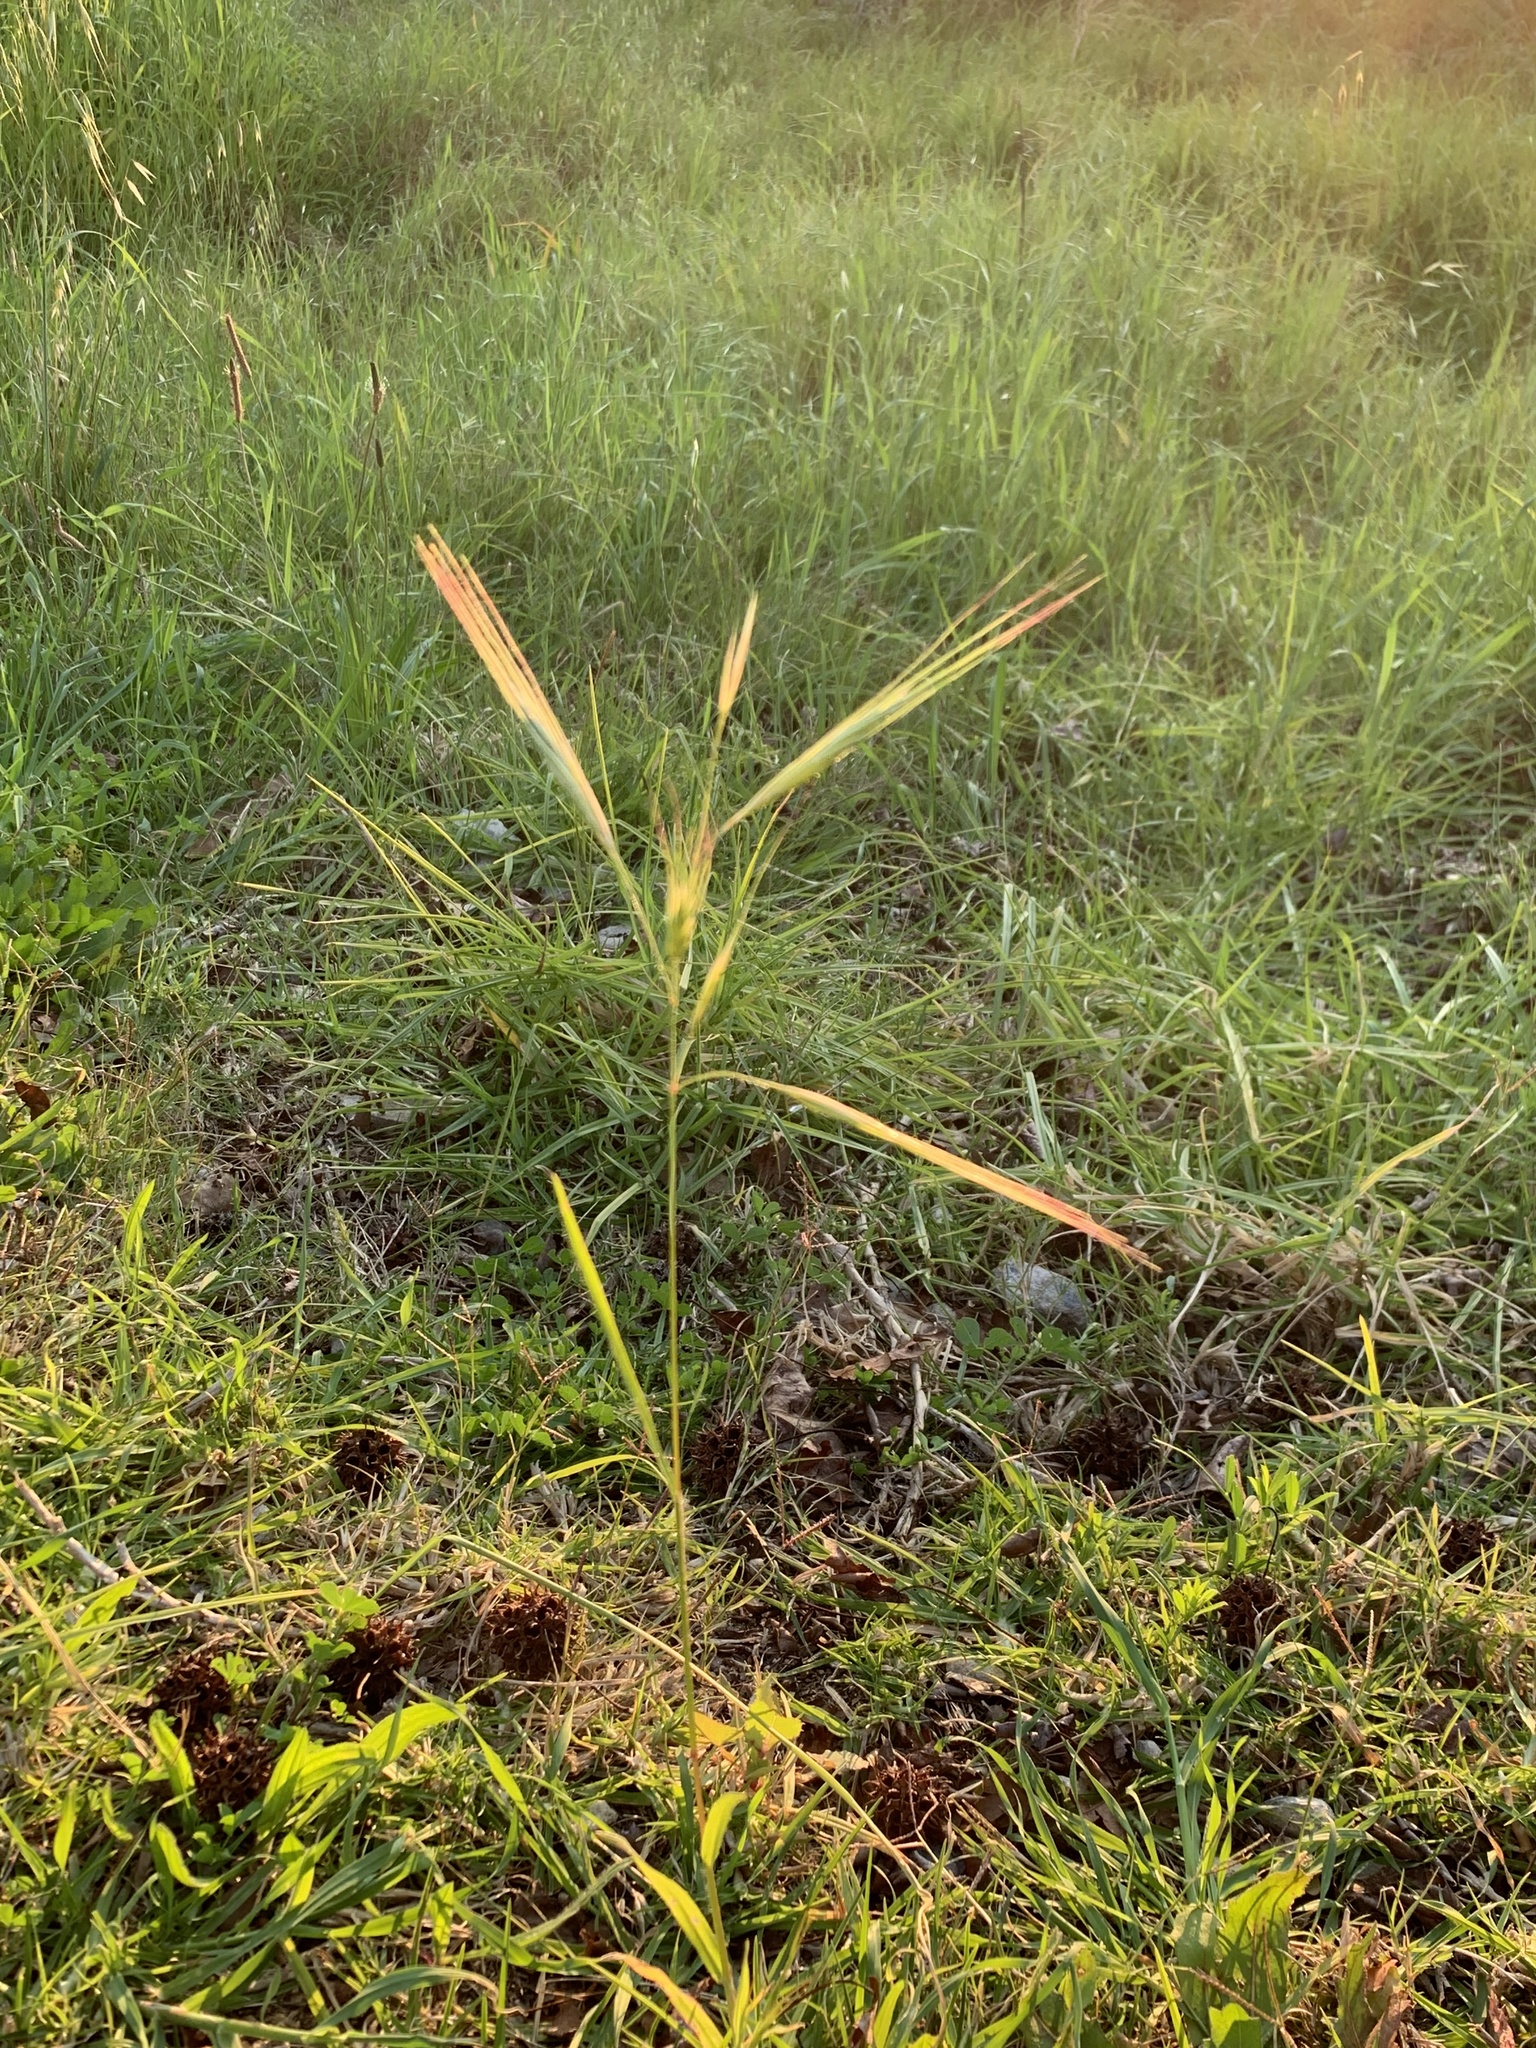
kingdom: Plantae
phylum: Tracheophyta
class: Liliopsida
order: Poales
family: Poaceae
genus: Bromus
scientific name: Bromus diandrus
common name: Ripgut brome
